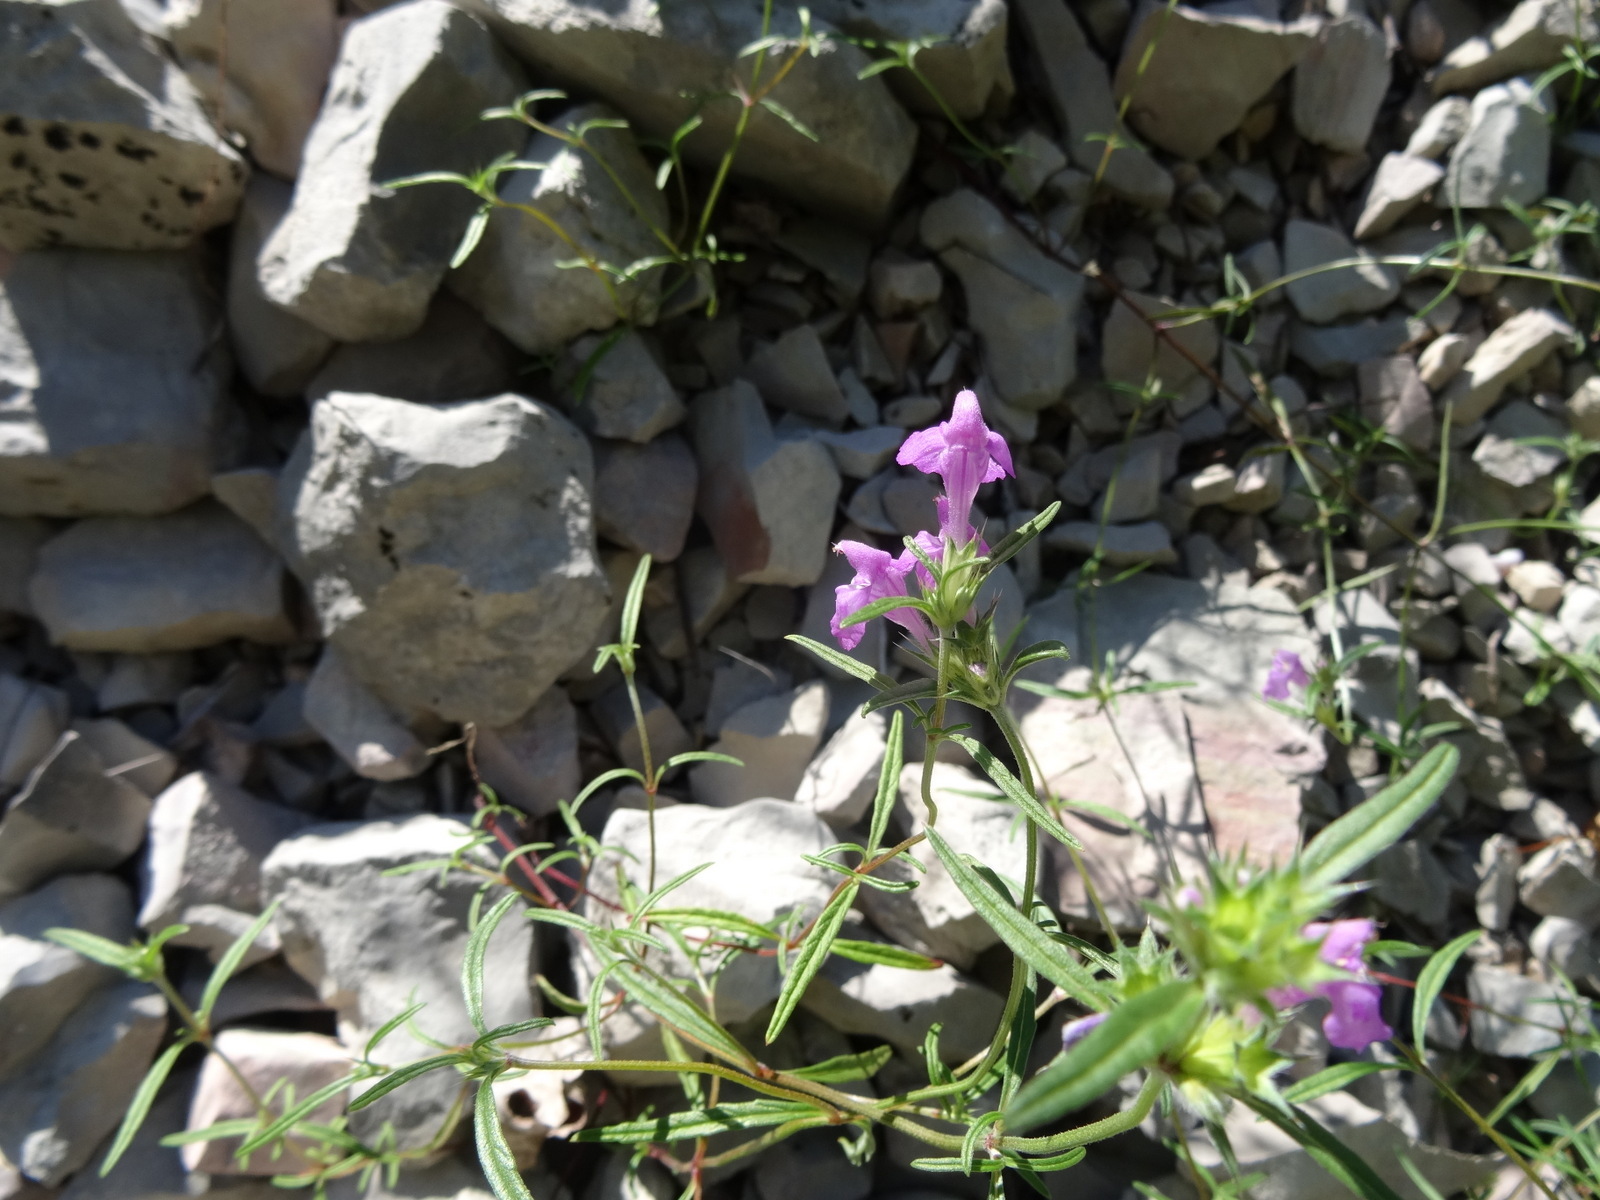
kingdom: Plantae
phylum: Tracheophyta
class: Magnoliopsida
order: Lamiales
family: Lamiaceae
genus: Galeopsis
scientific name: Galeopsis angustifolia
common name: Red hemp-nettle
